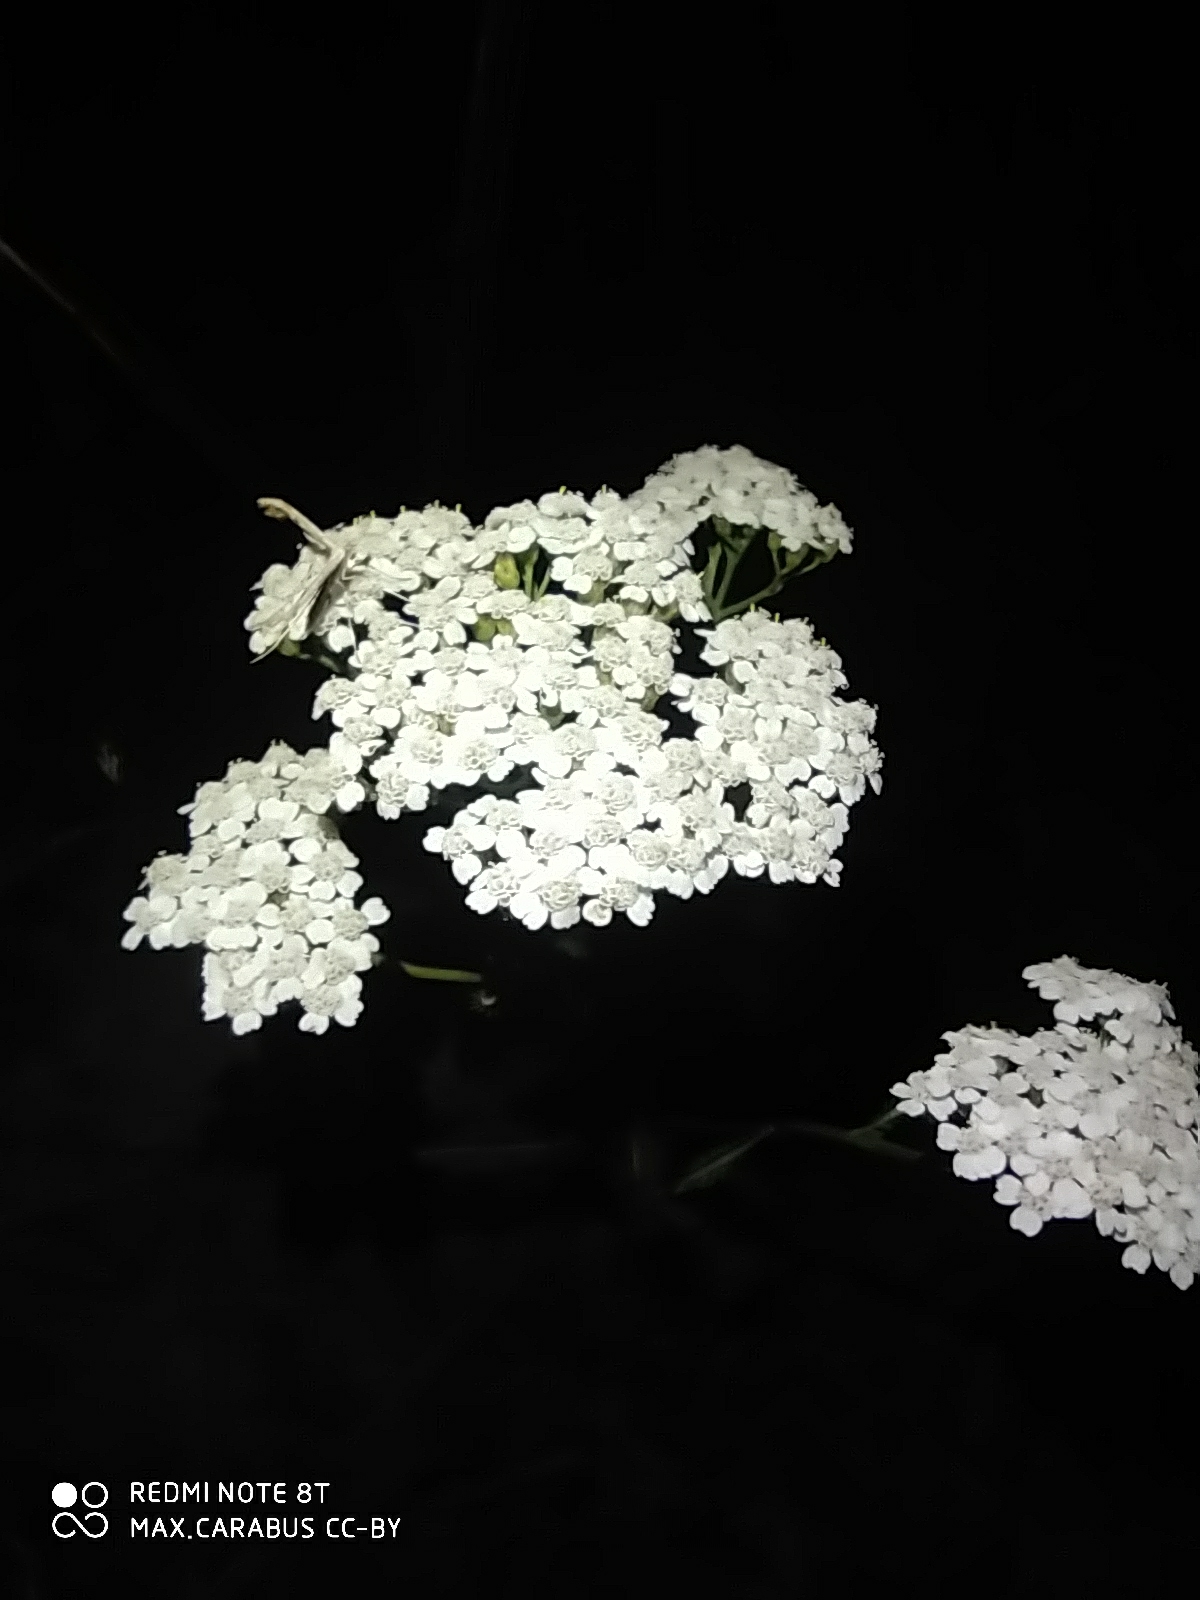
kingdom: Plantae
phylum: Tracheophyta
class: Magnoliopsida
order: Asterales
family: Asteraceae
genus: Achillea
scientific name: Achillea millefolium
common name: Yarrow
